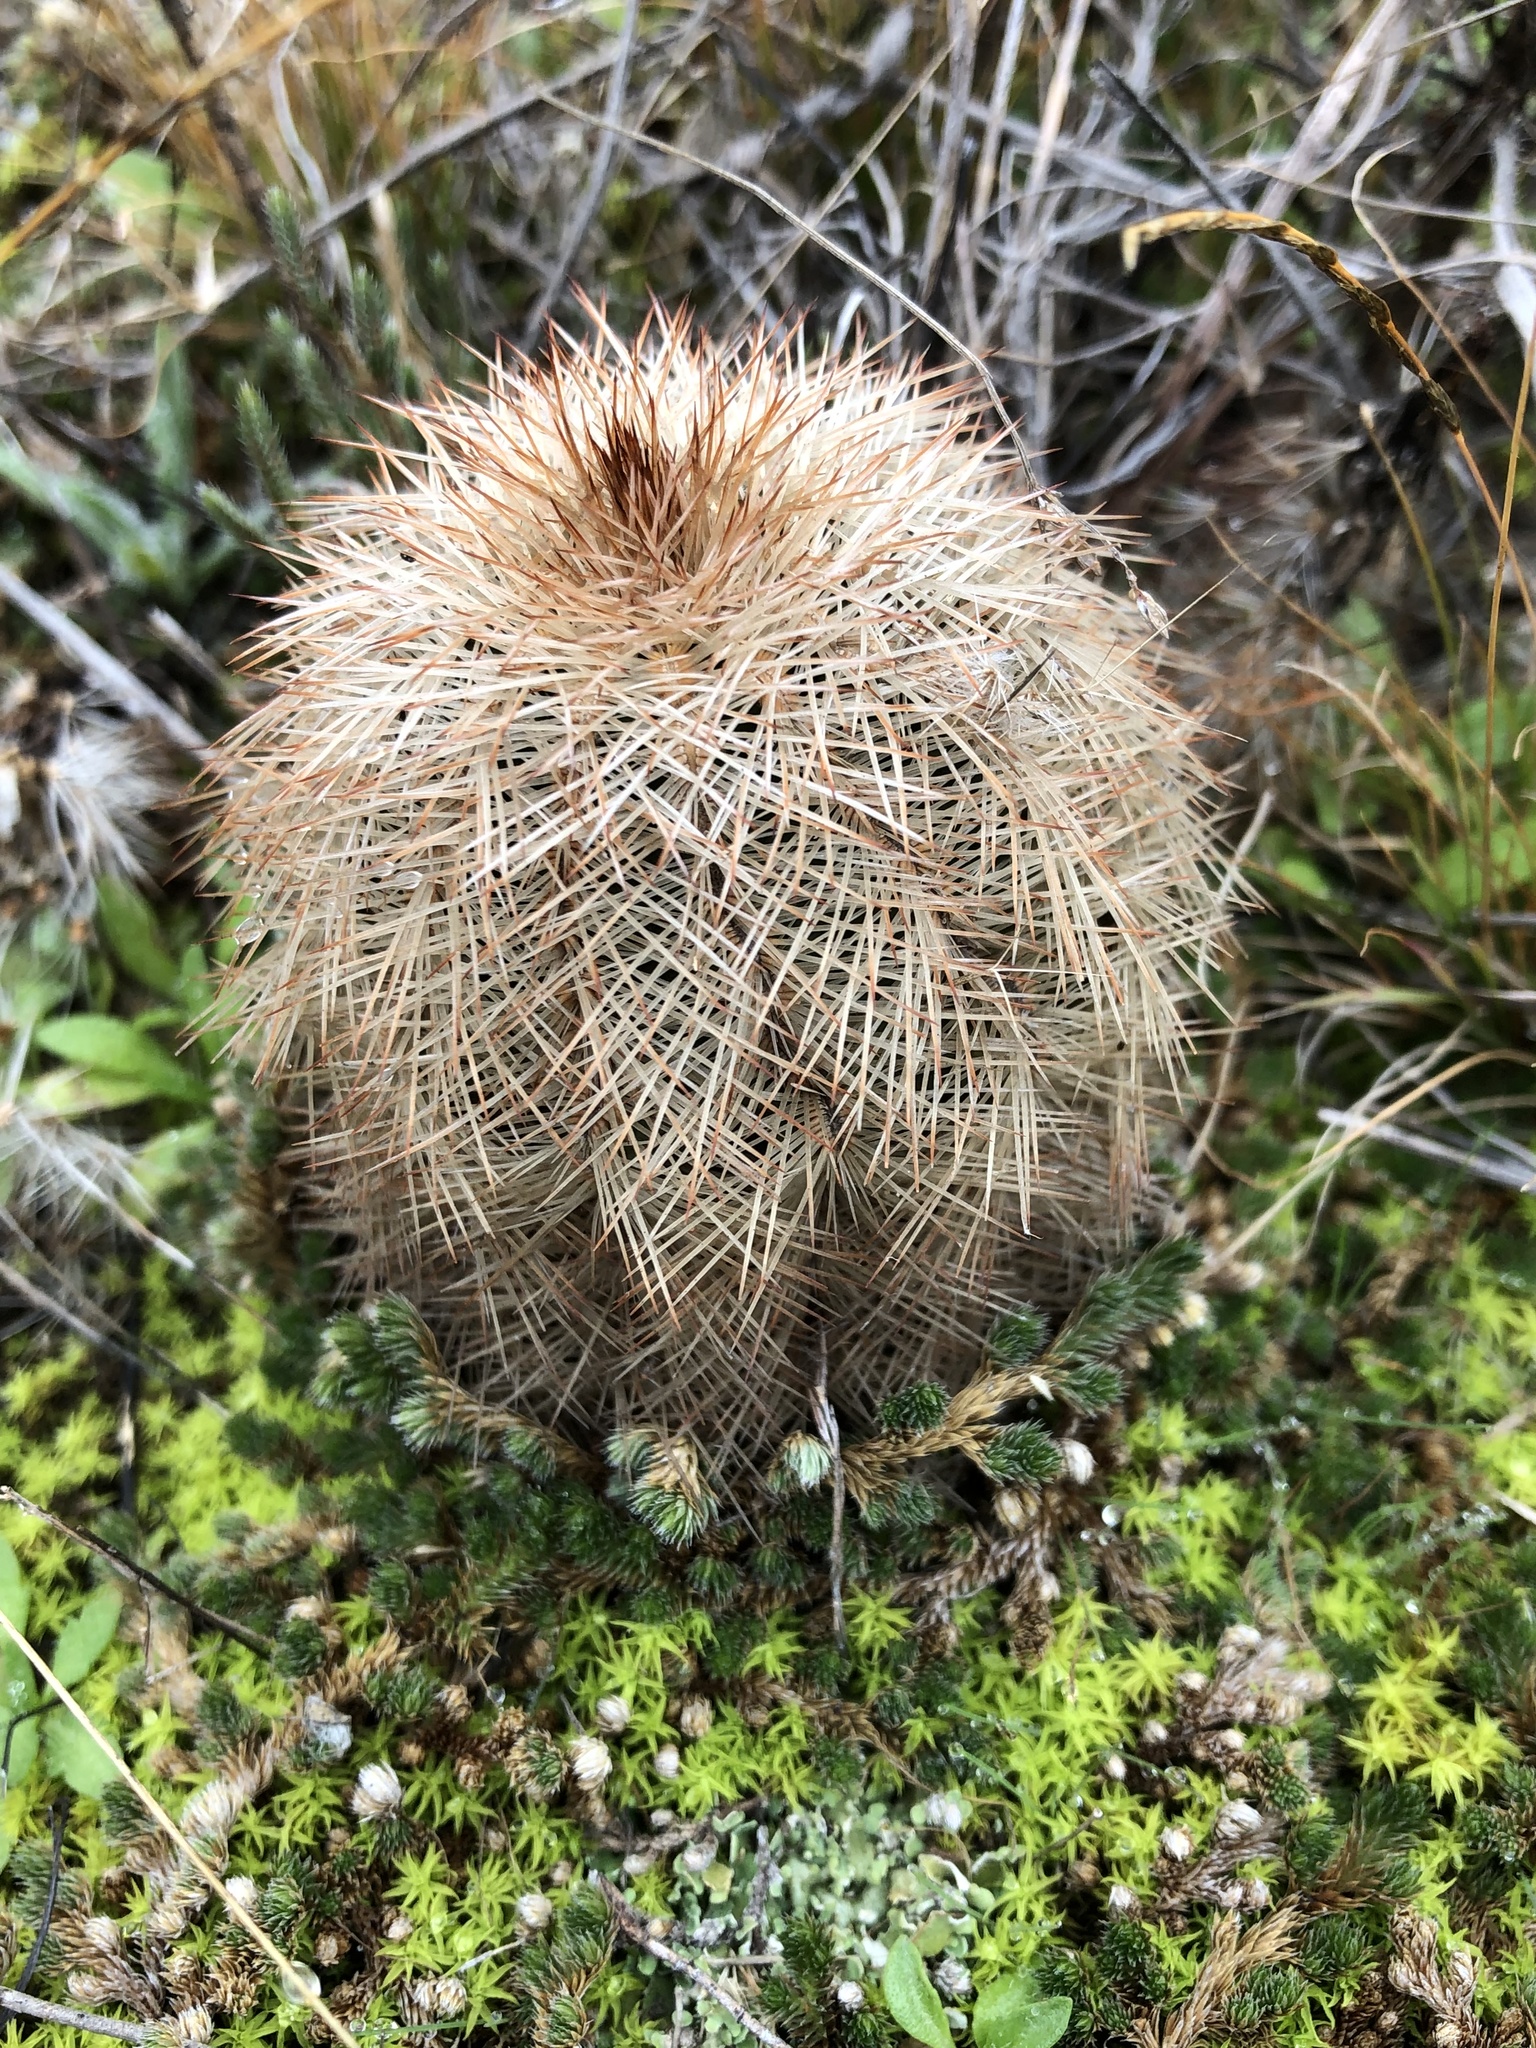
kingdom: Plantae
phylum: Tracheophyta
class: Magnoliopsida
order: Caryophyllales
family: Cactaceae
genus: Echinocereus
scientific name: Echinocereus reichenbachii
